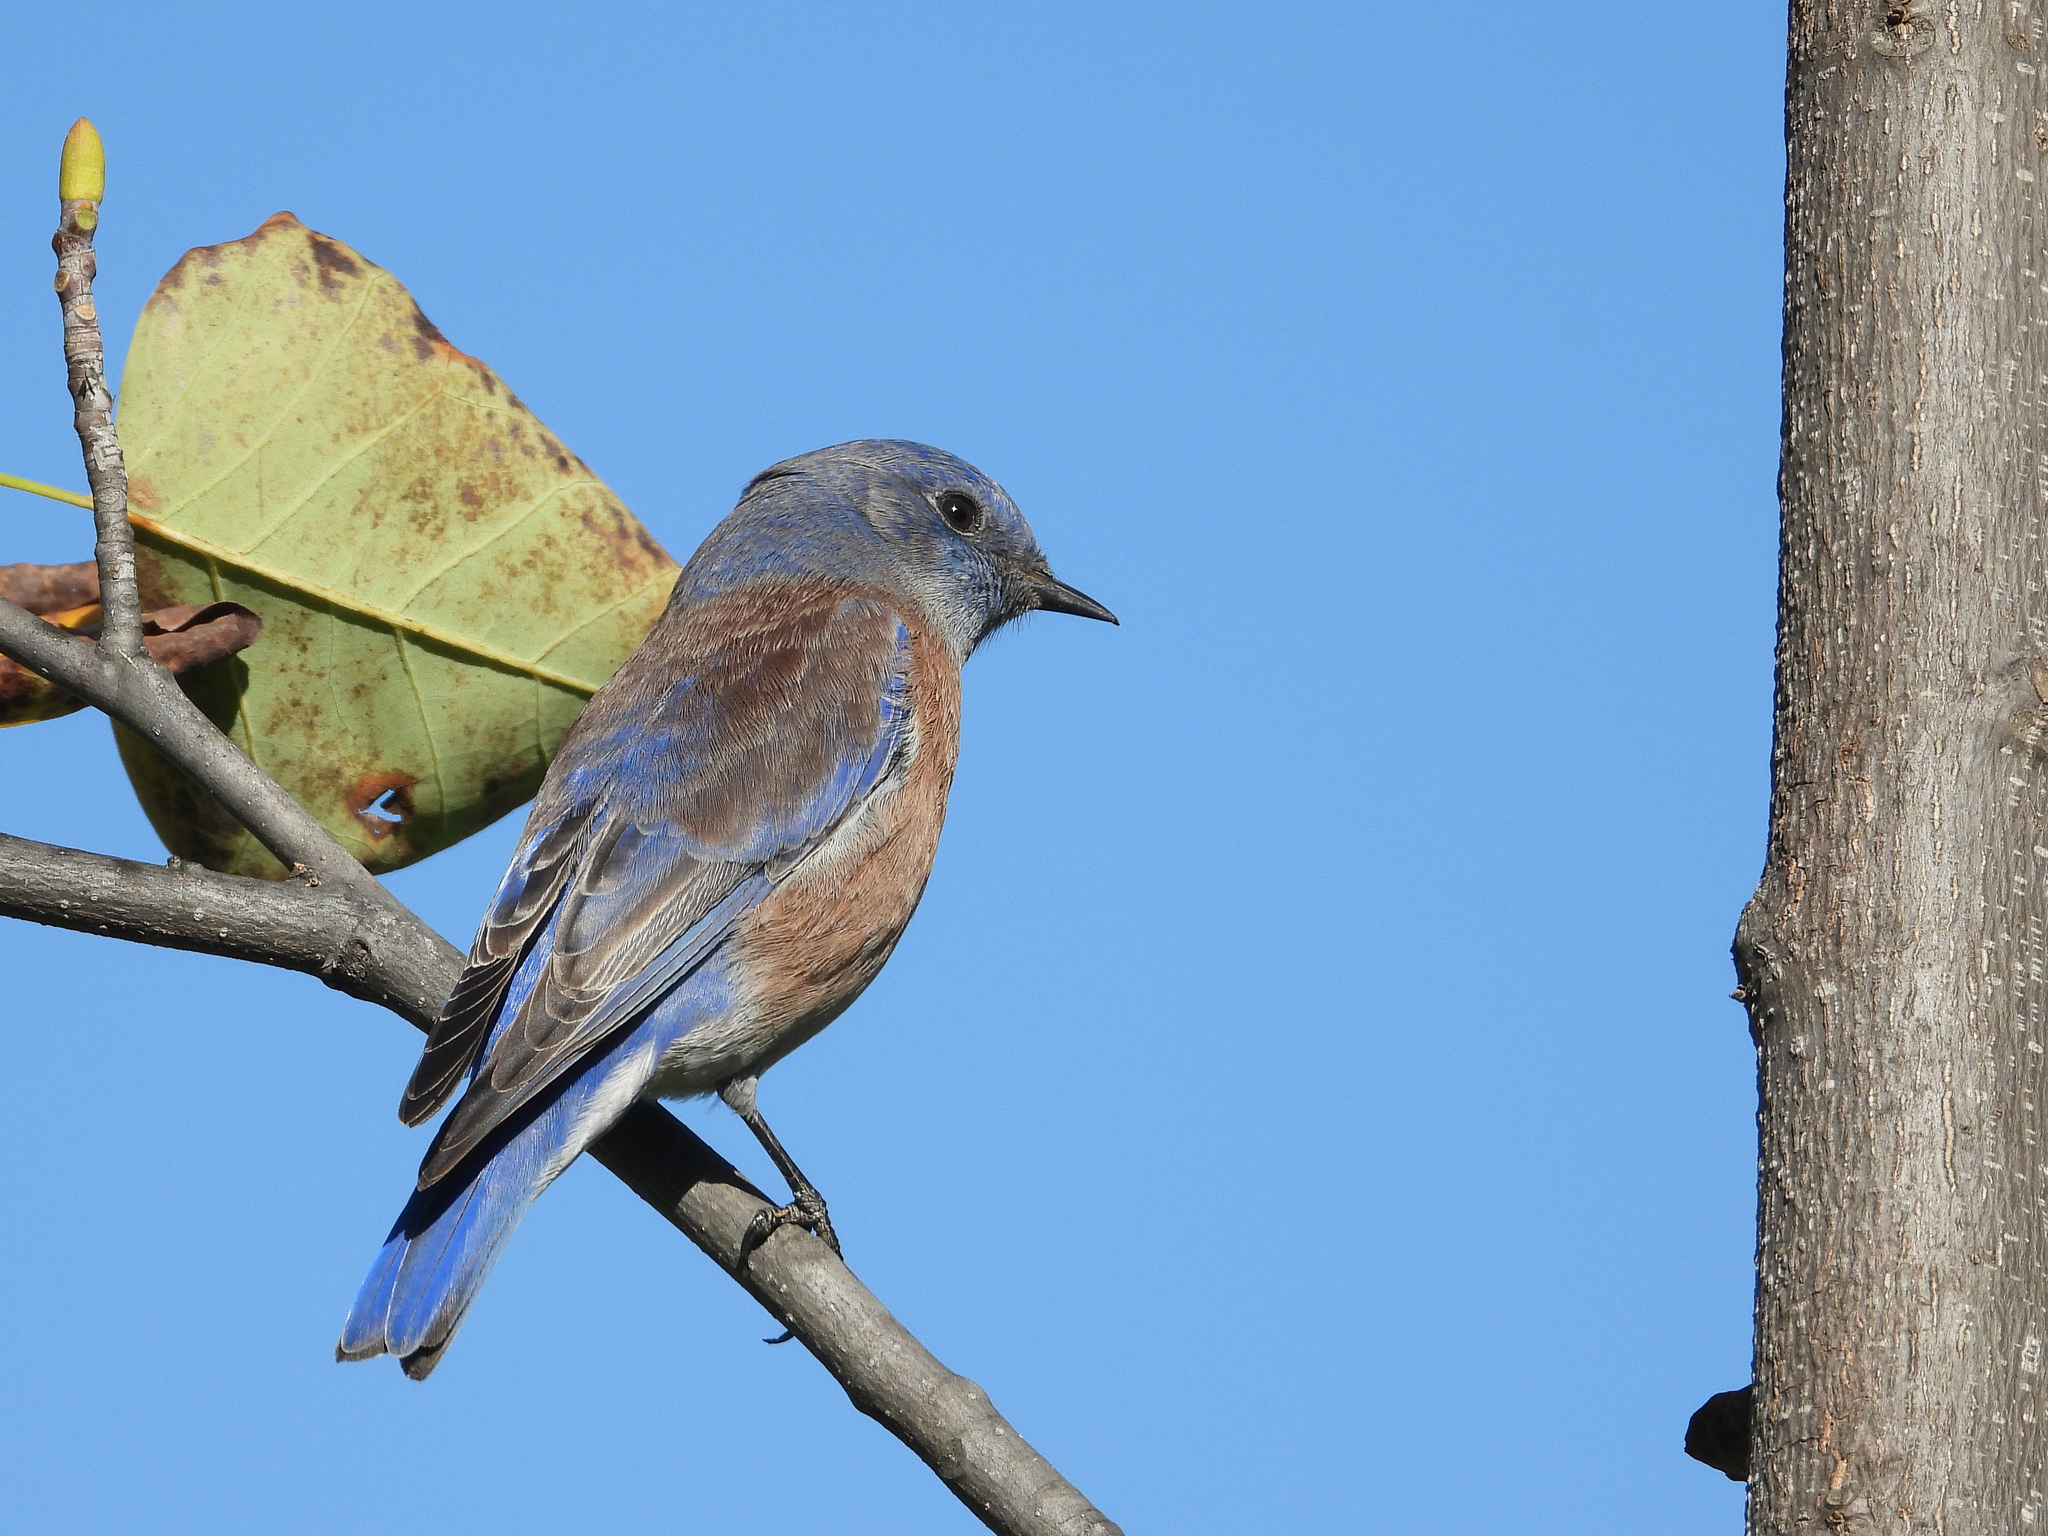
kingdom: Animalia
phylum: Chordata
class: Aves
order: Passeriformes
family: Turdidae
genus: Sialia
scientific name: Sialia mexicana
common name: Western bluebird
